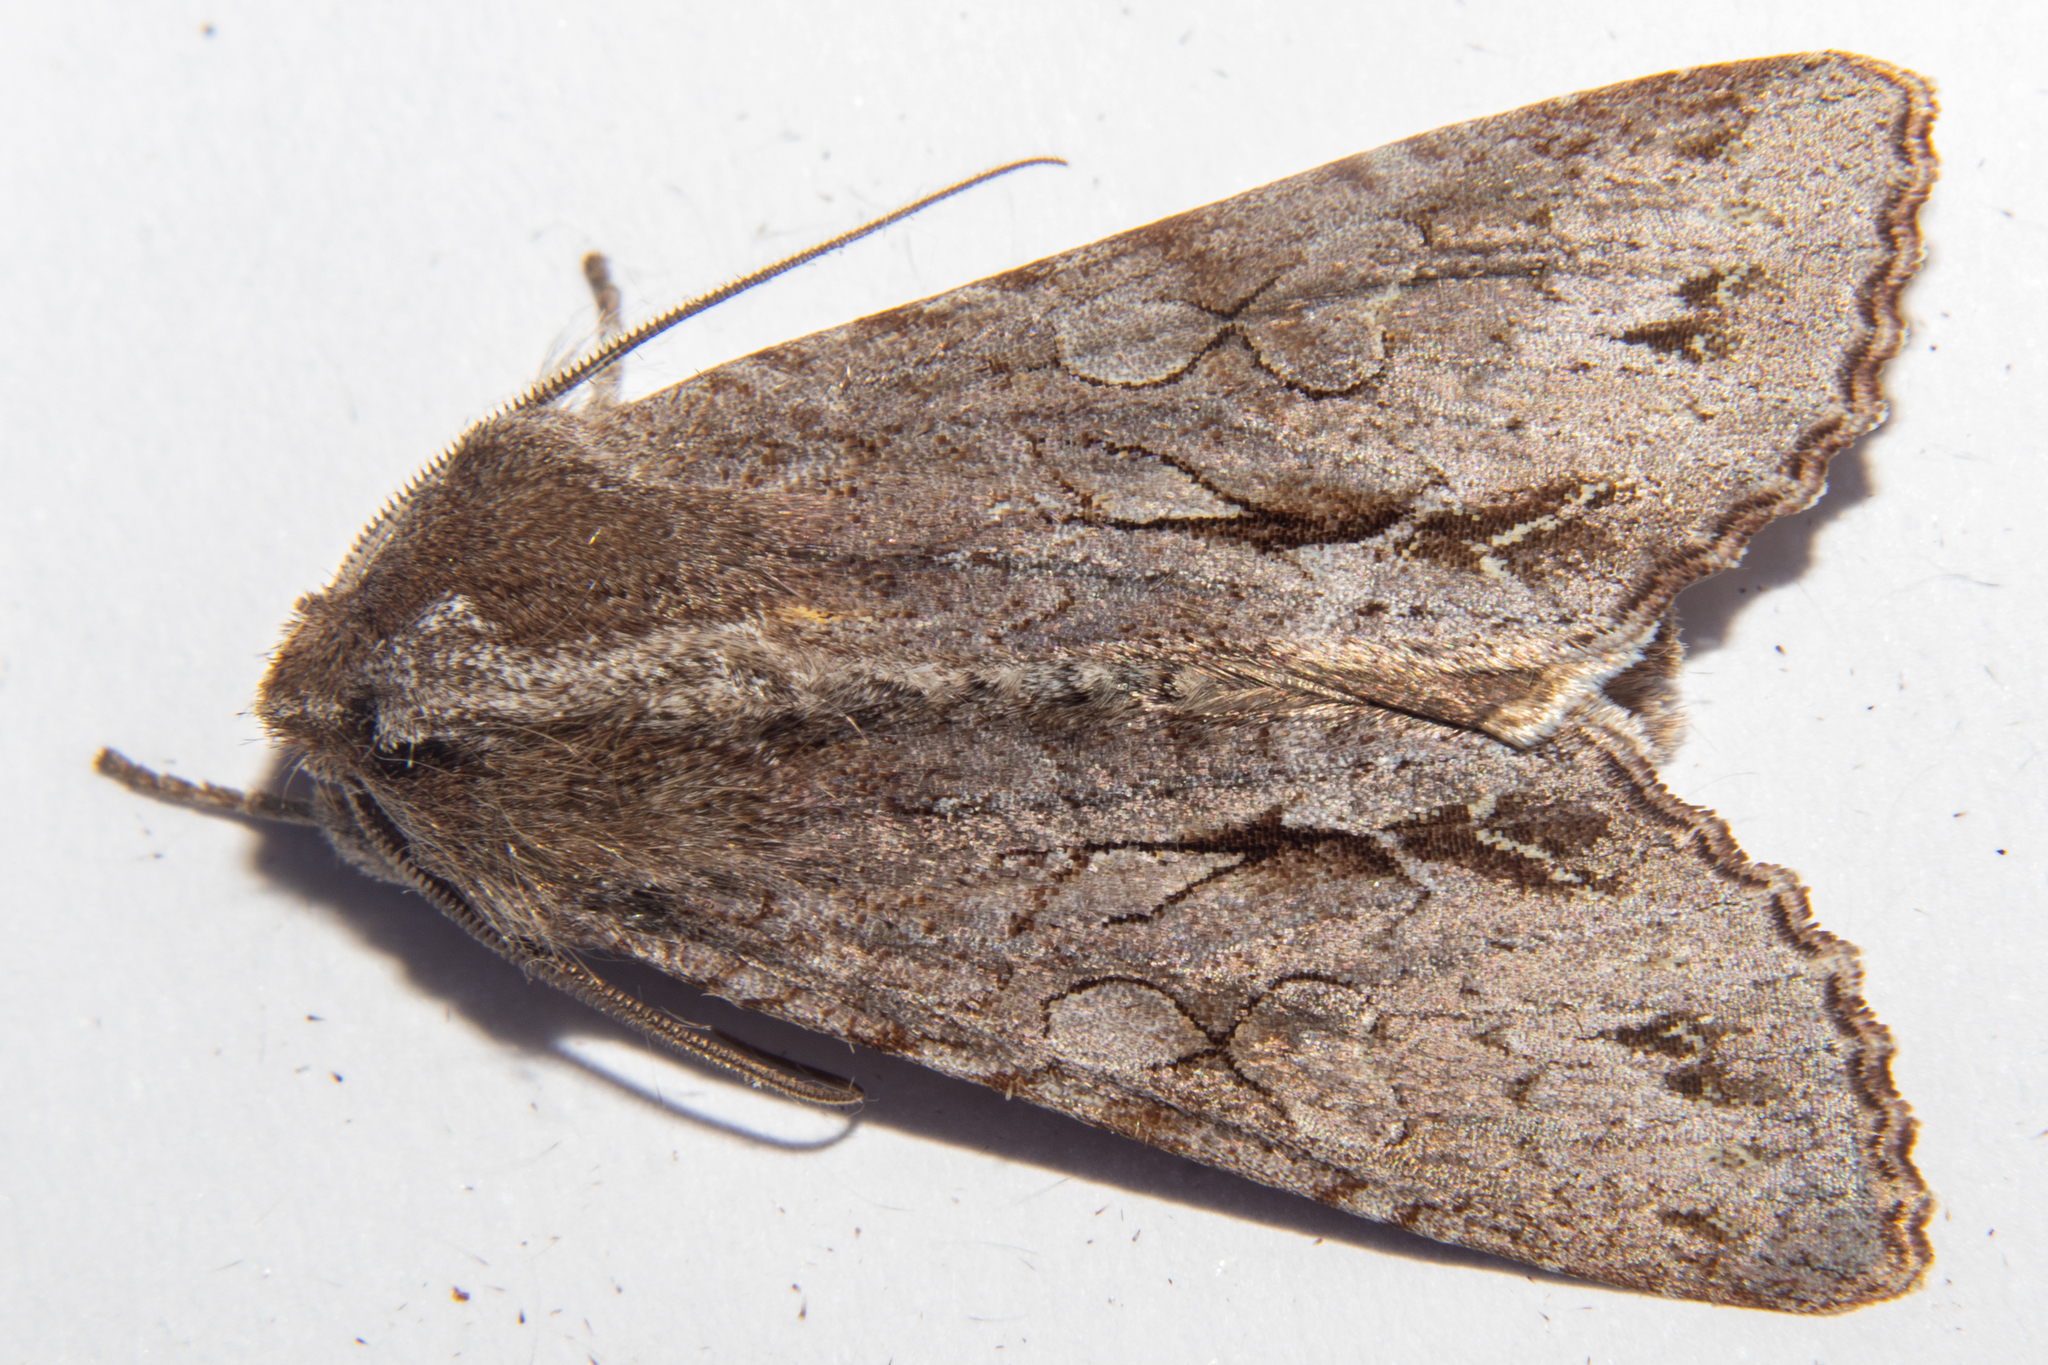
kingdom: Animalia
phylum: Arthropoda
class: Insecta
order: Lepidoptera
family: Noctuidae
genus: Ichneutica
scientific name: Ichneutica
